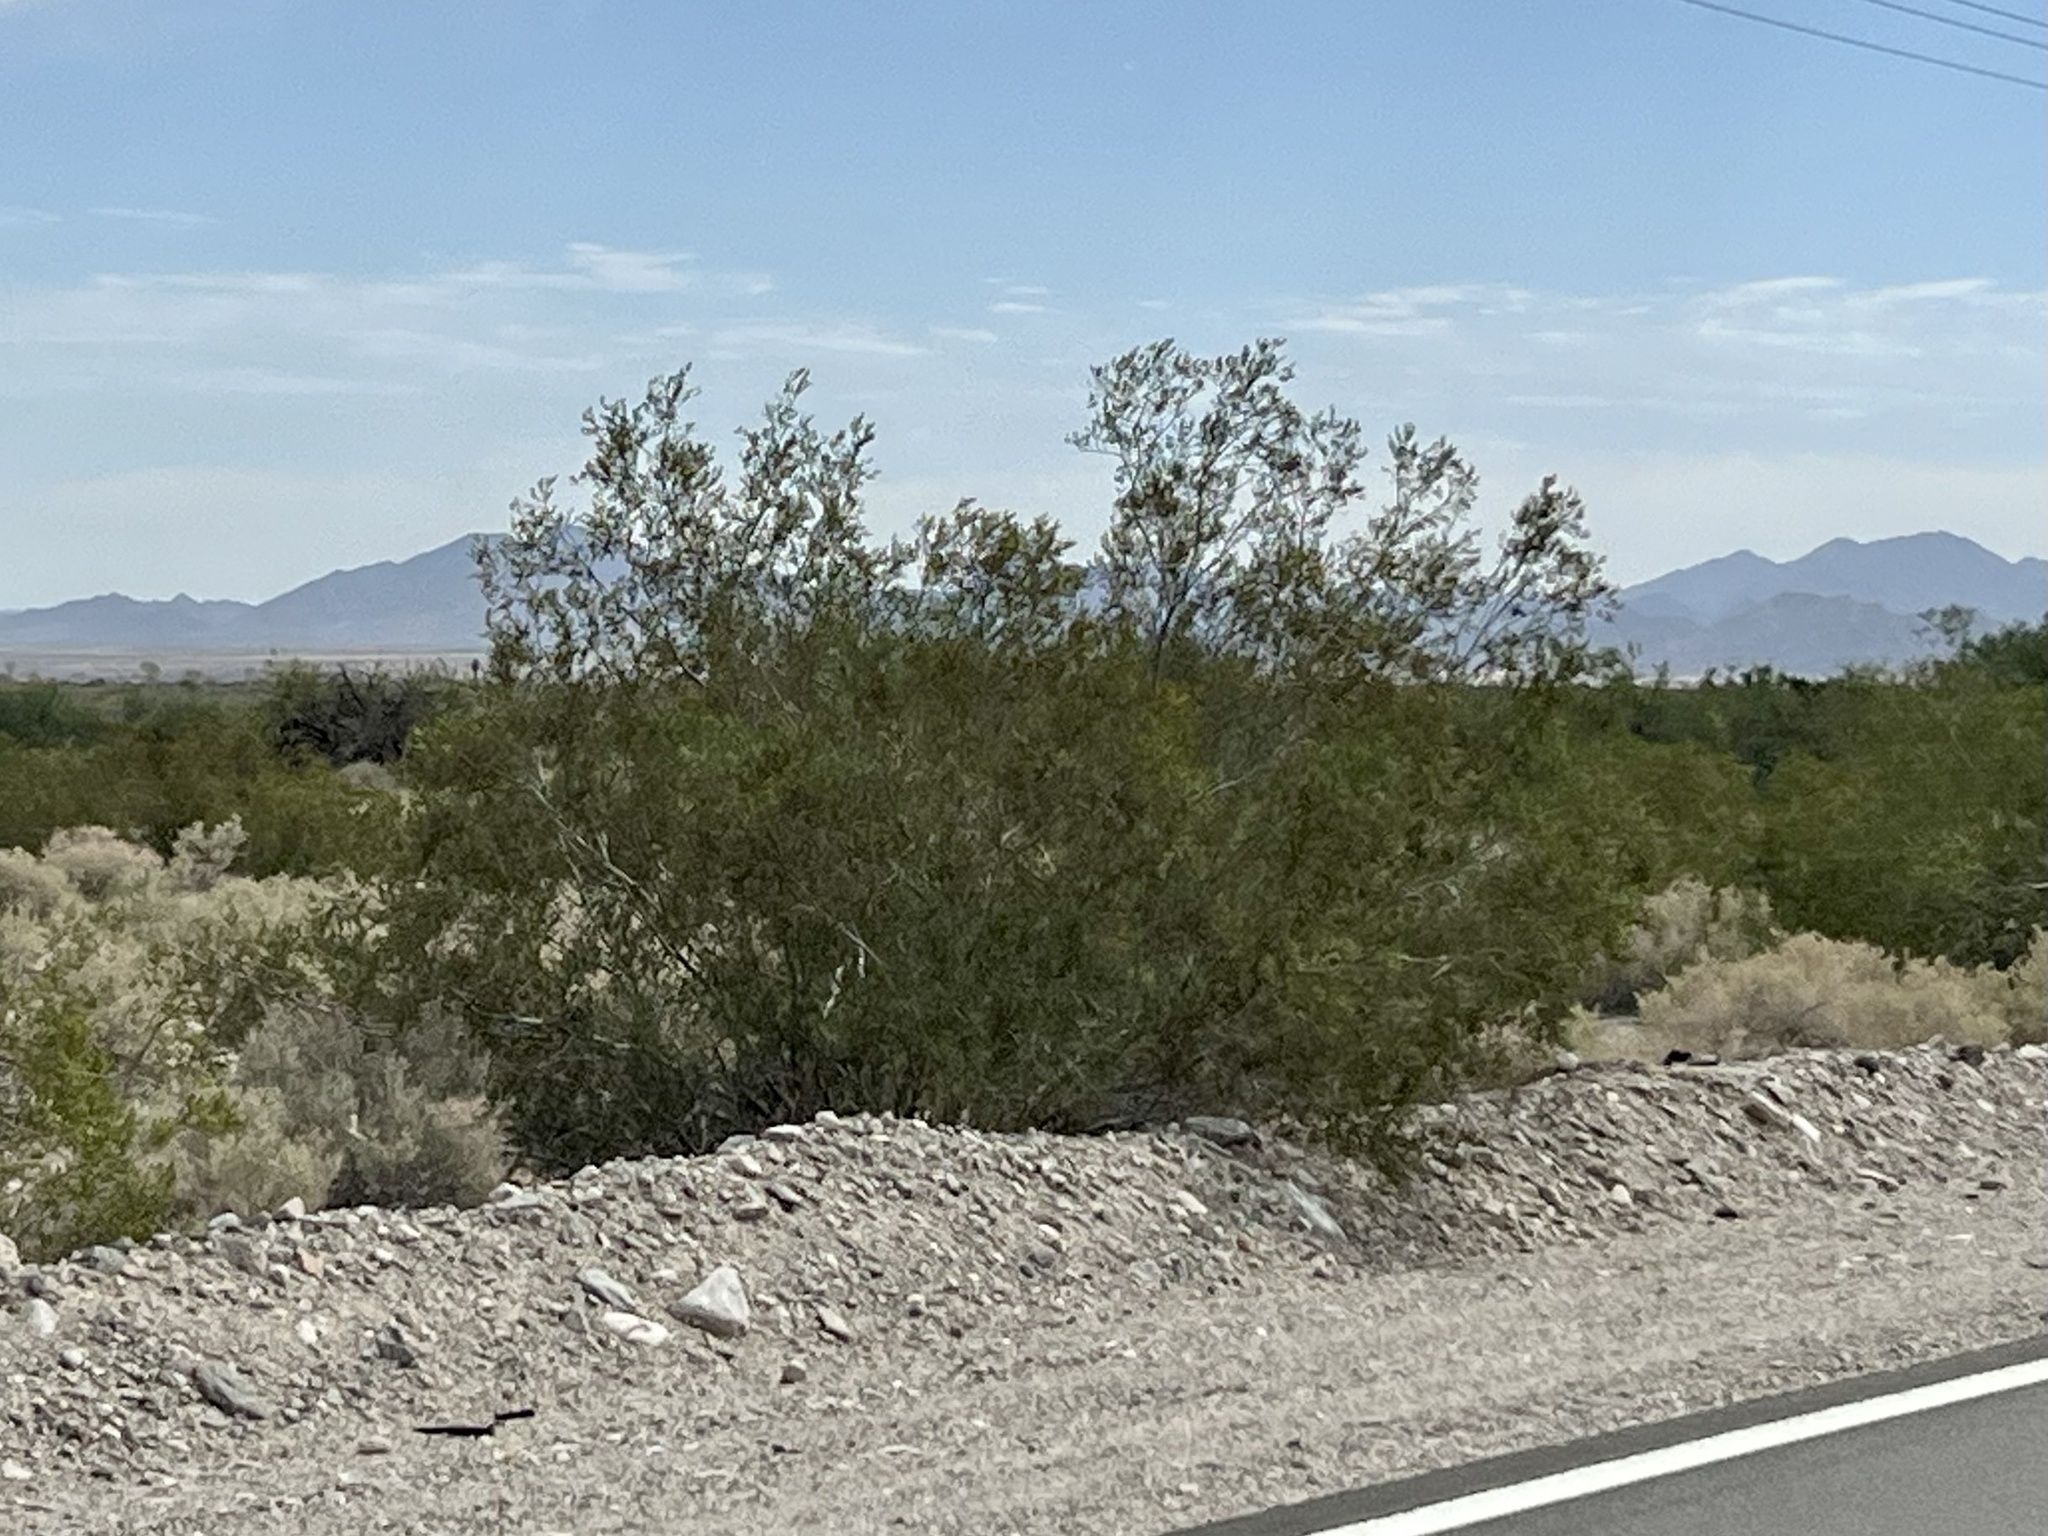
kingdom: Plantae
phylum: Tracheophyta
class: Magnoliopsida
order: Zygophyllales
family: Zygophyllaceae
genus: Larrea
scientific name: Larrea tridentata
